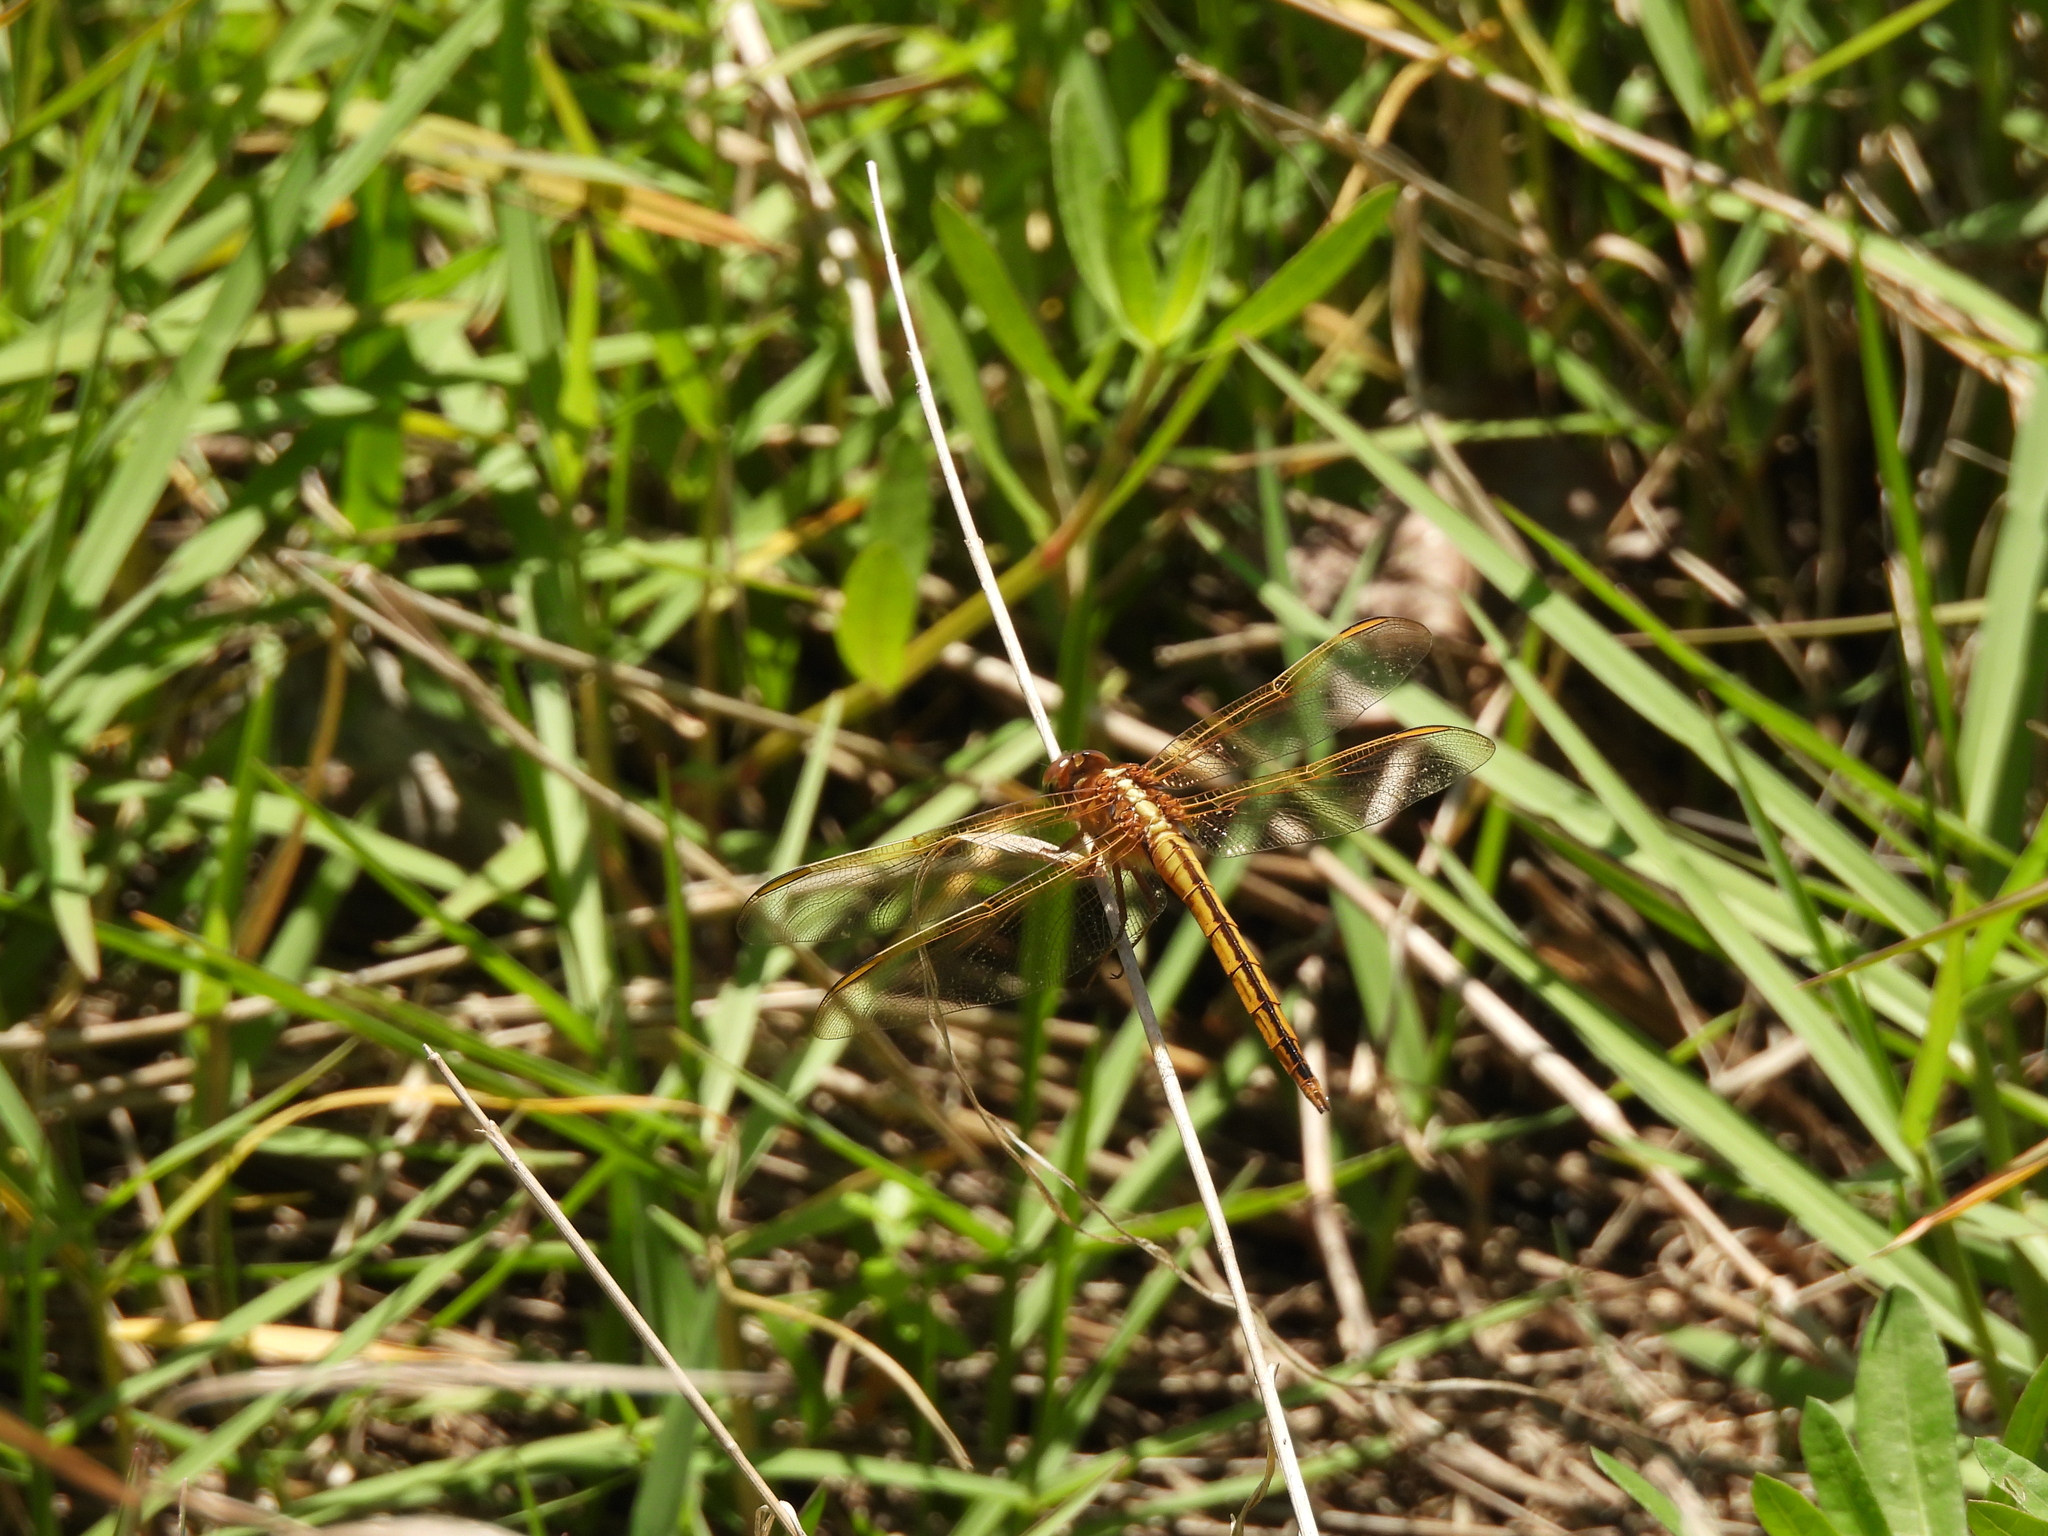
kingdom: Animalia
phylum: Arthropoda
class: Insecta
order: Odonata
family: Libellulidae
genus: Libellula
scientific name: Libellula needhami
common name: Needham's skimmer
